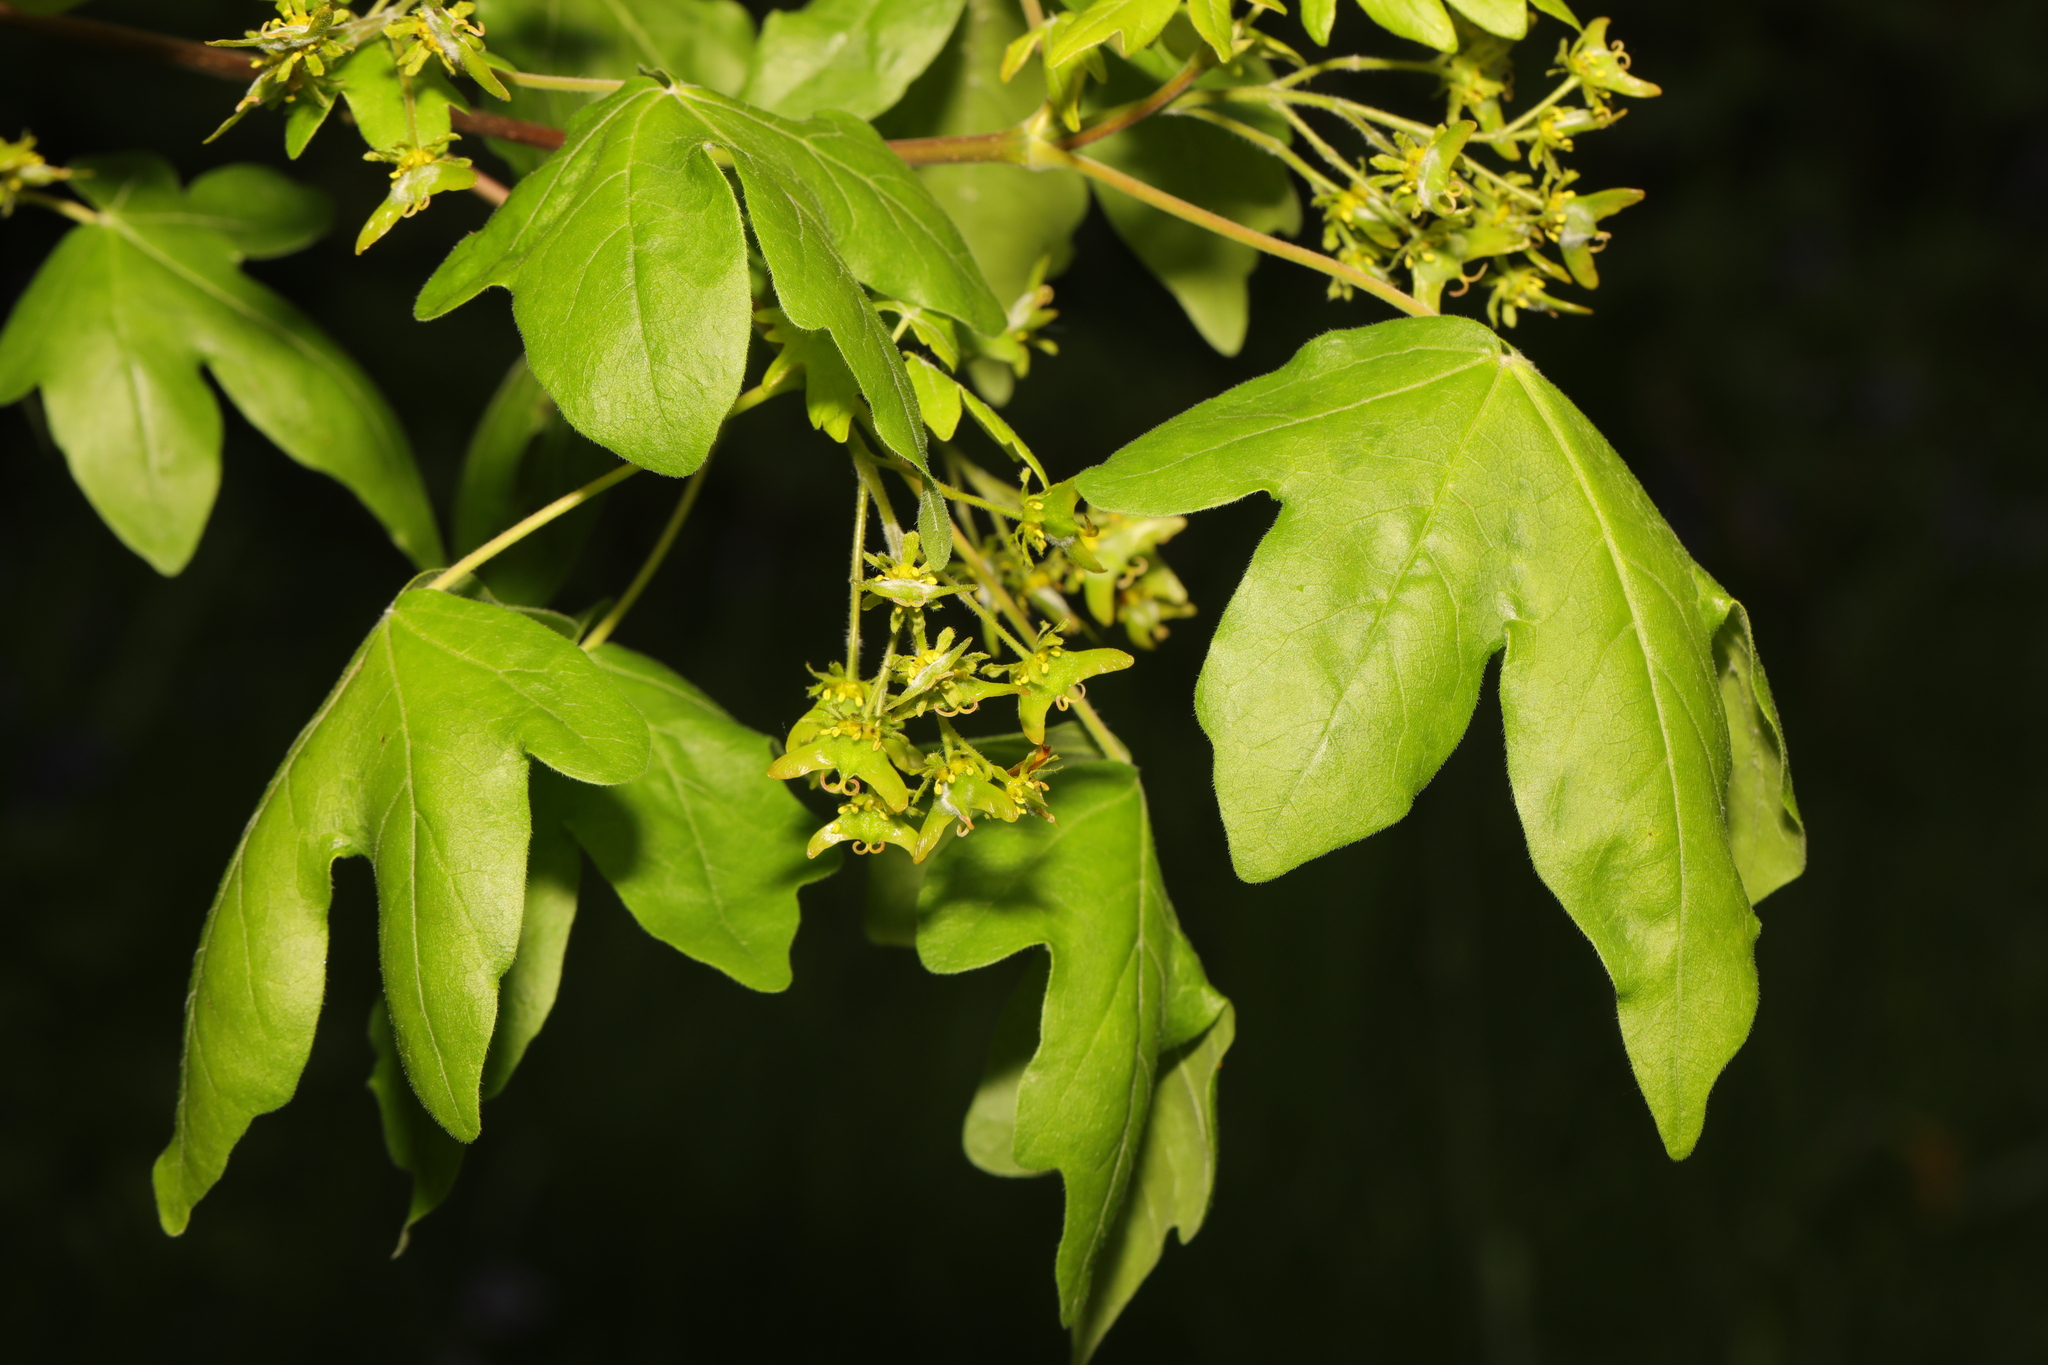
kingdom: Plantae
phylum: Tracheophyta
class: Magnoliopsida
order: Sapindales
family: Sapindaceae
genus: Acer
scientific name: Acer campestre
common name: Field maple
